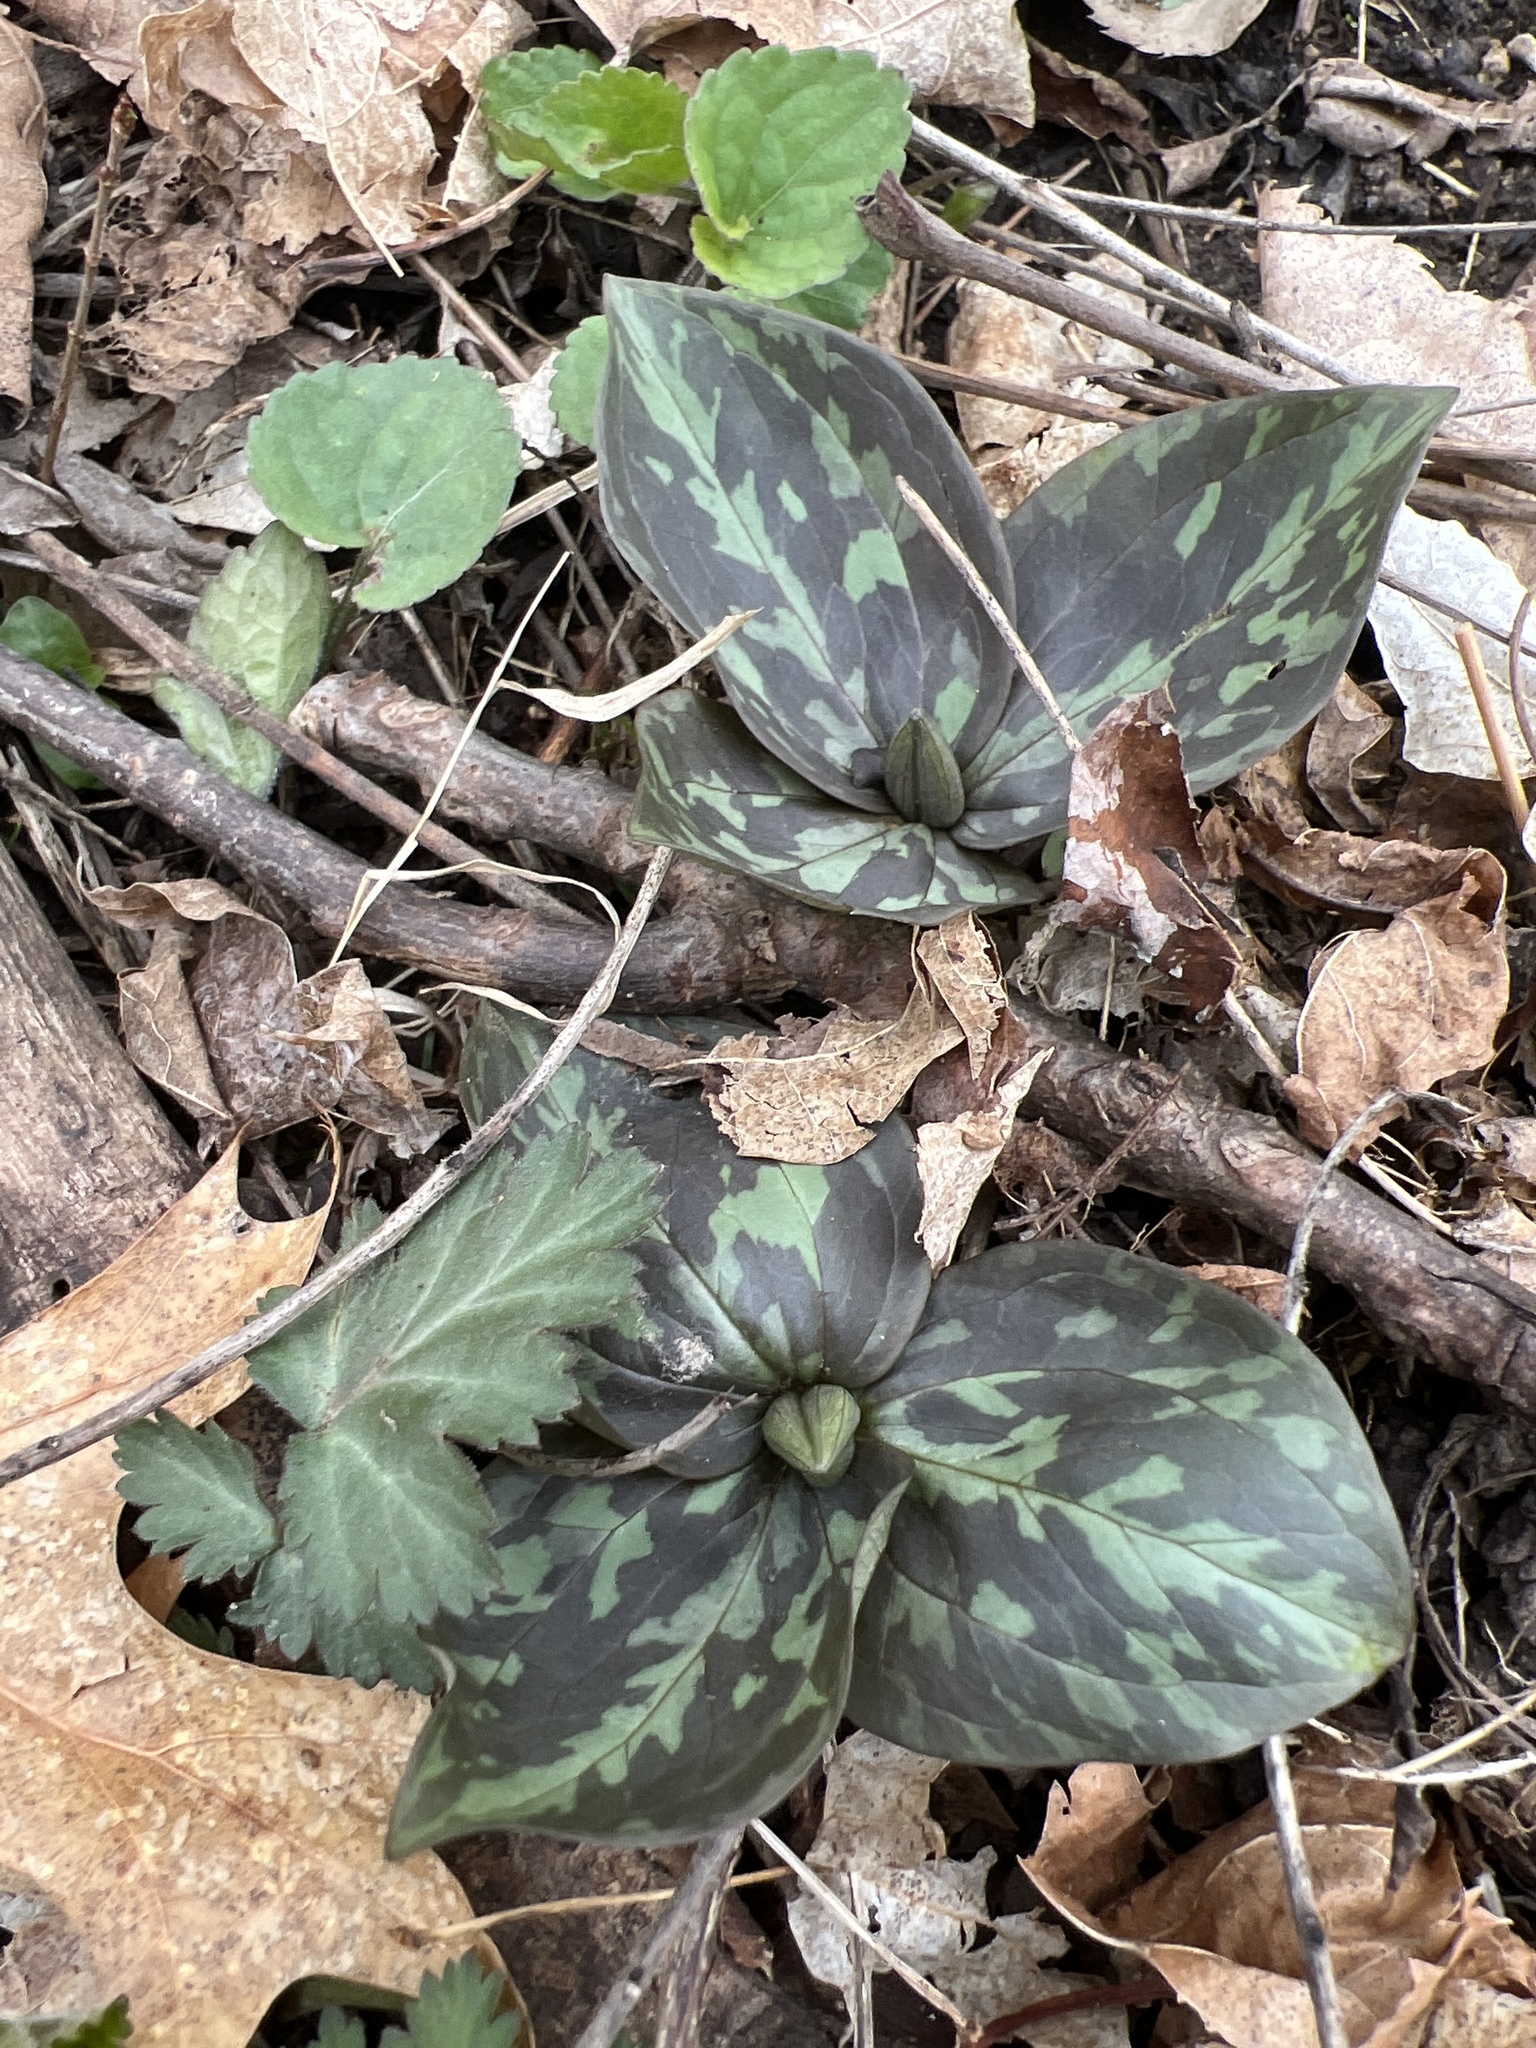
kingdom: Plantae
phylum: Tracheophyta
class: Liliopsida
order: Liliales
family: Melanthiaceae
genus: Trillium
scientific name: Trillium recurvatum
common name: Bloody butcher
